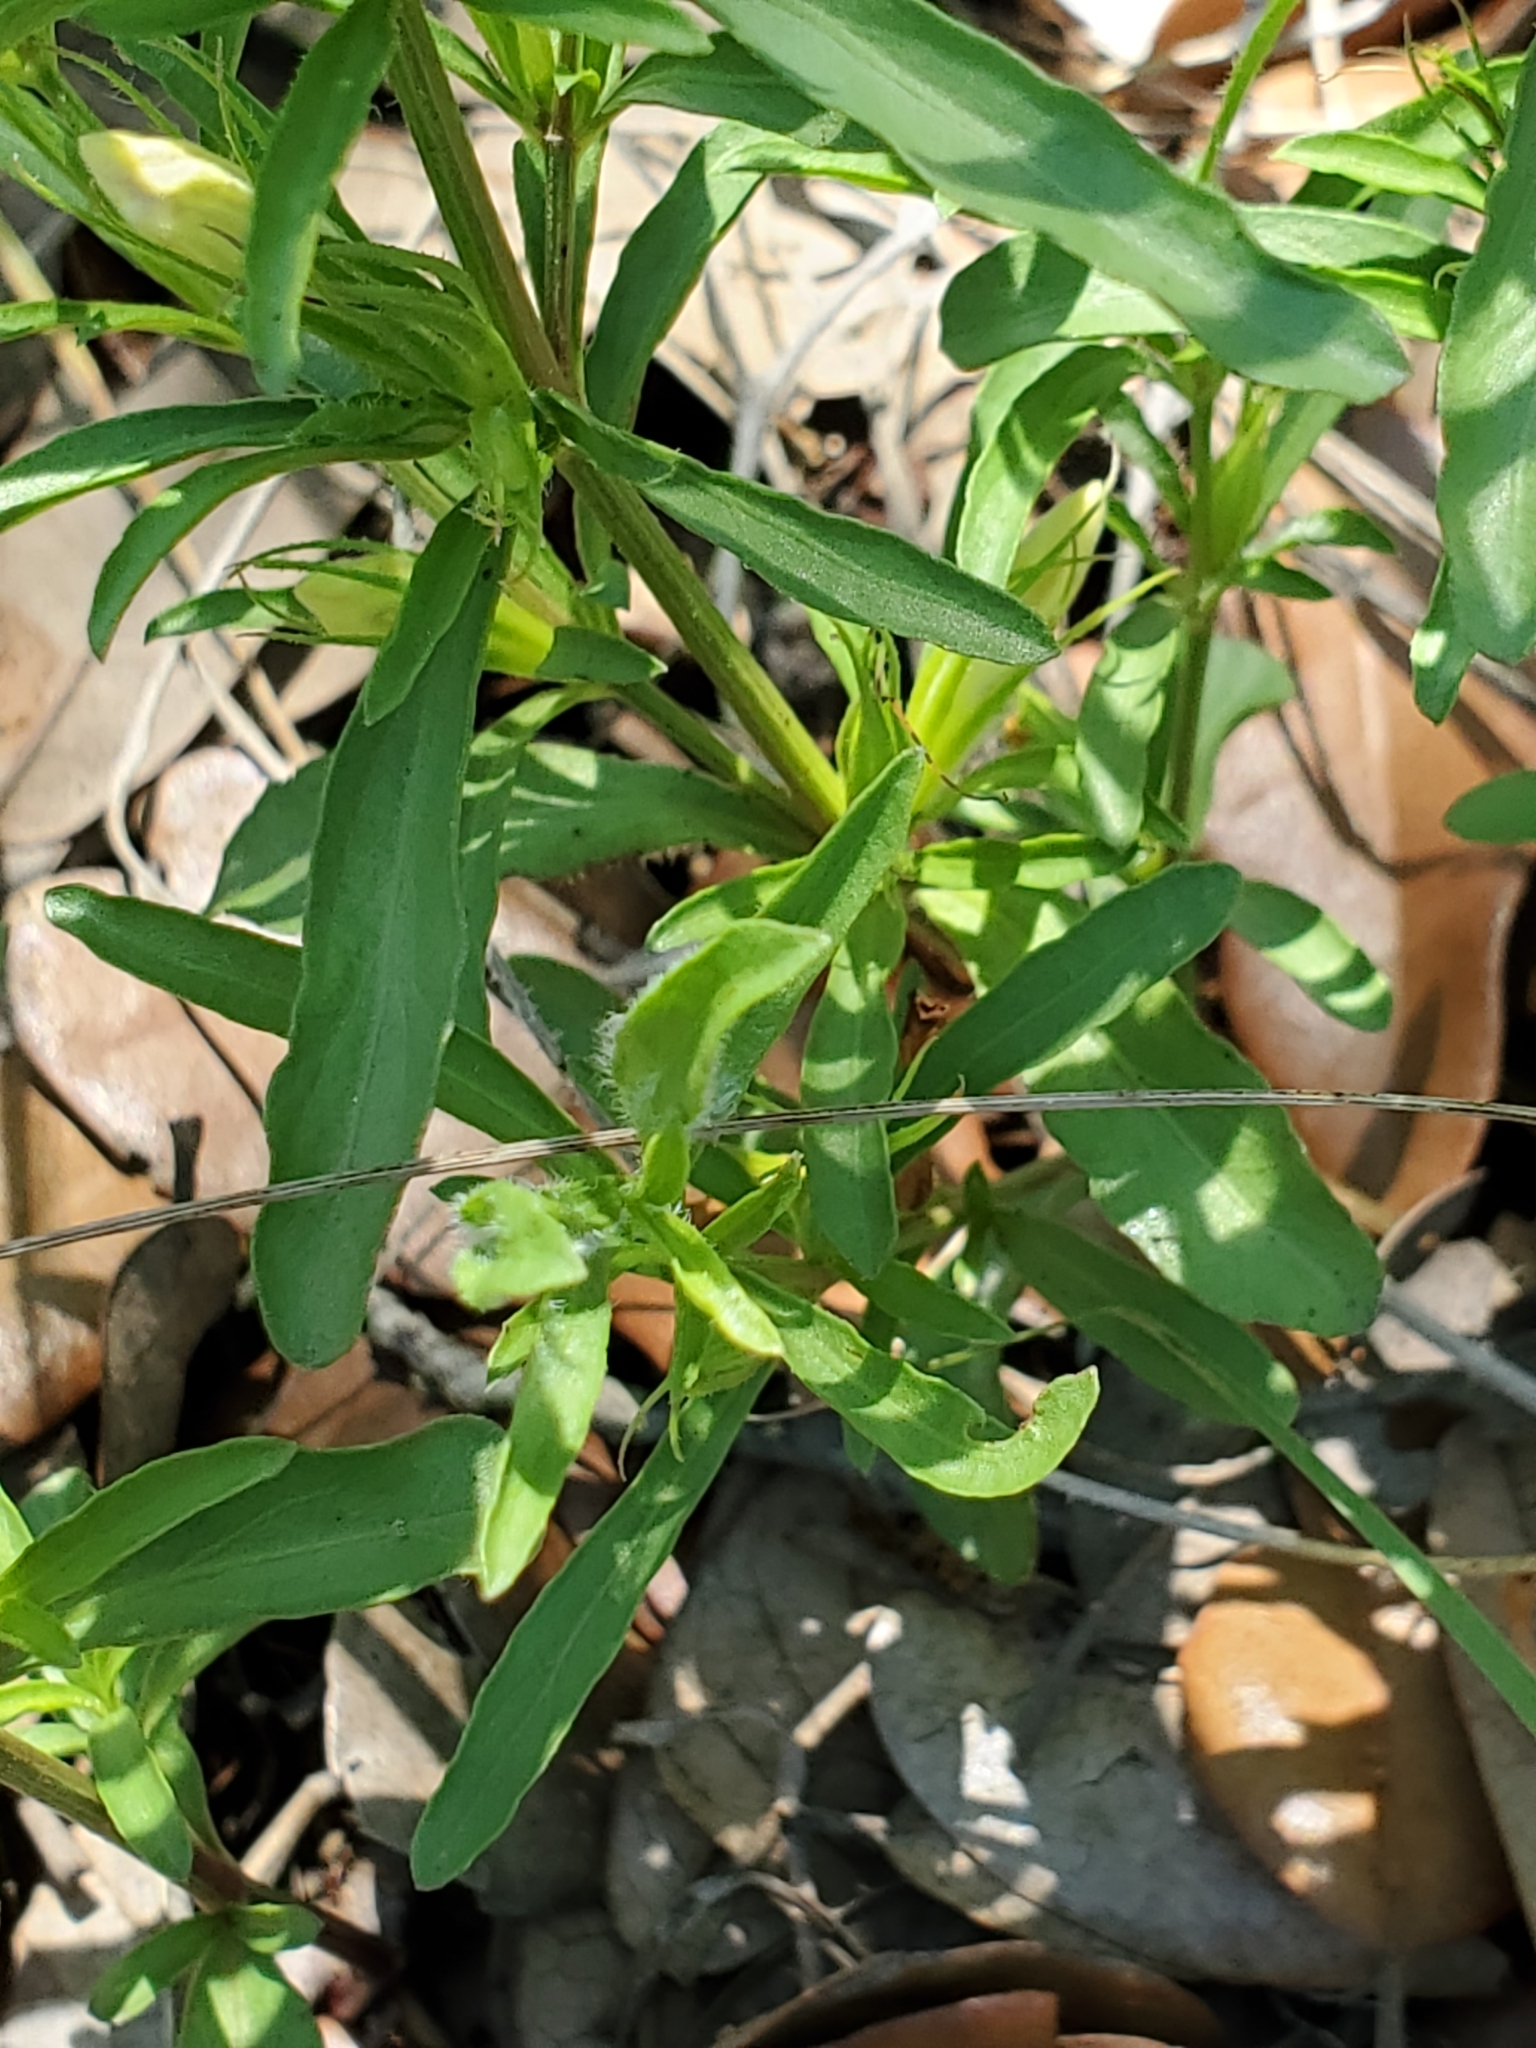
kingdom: Plantae
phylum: Tracheophyta
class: Magnoliopsida
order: Lamiales
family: Acanthaceae
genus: Dyschoriste
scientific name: Dyschoriste linearis
